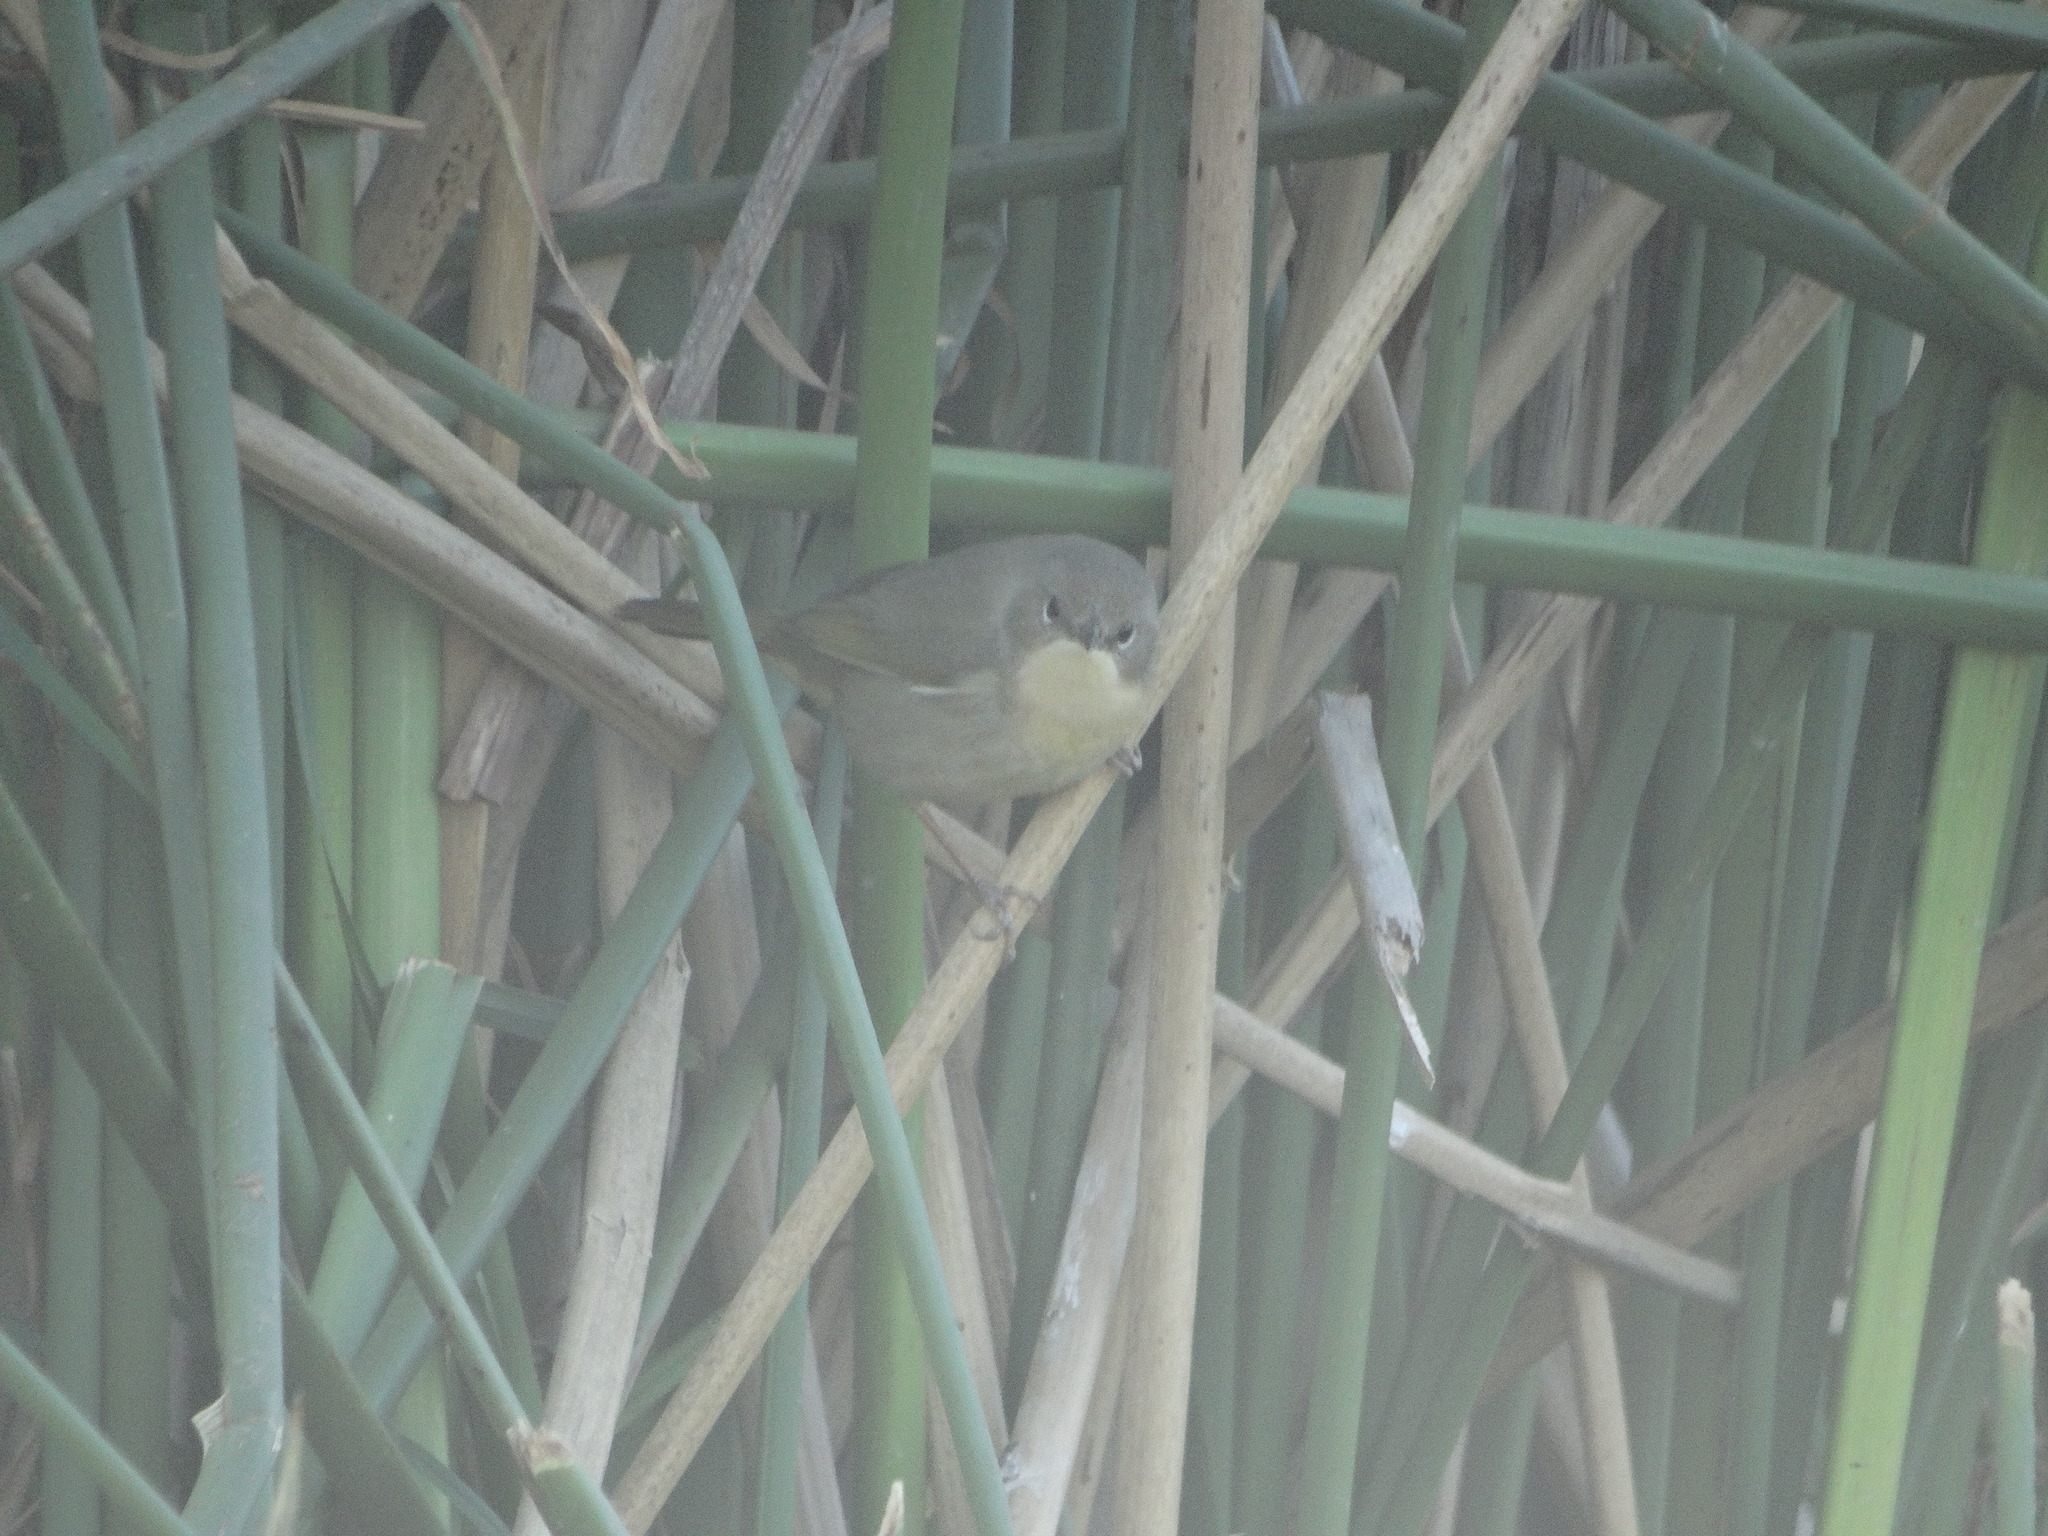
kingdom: Animalia
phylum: Chordata
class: Aves
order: Passeriformes
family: Parulidae
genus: Geothlypis
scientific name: Geothlypis trichas
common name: Common yellowthroat
